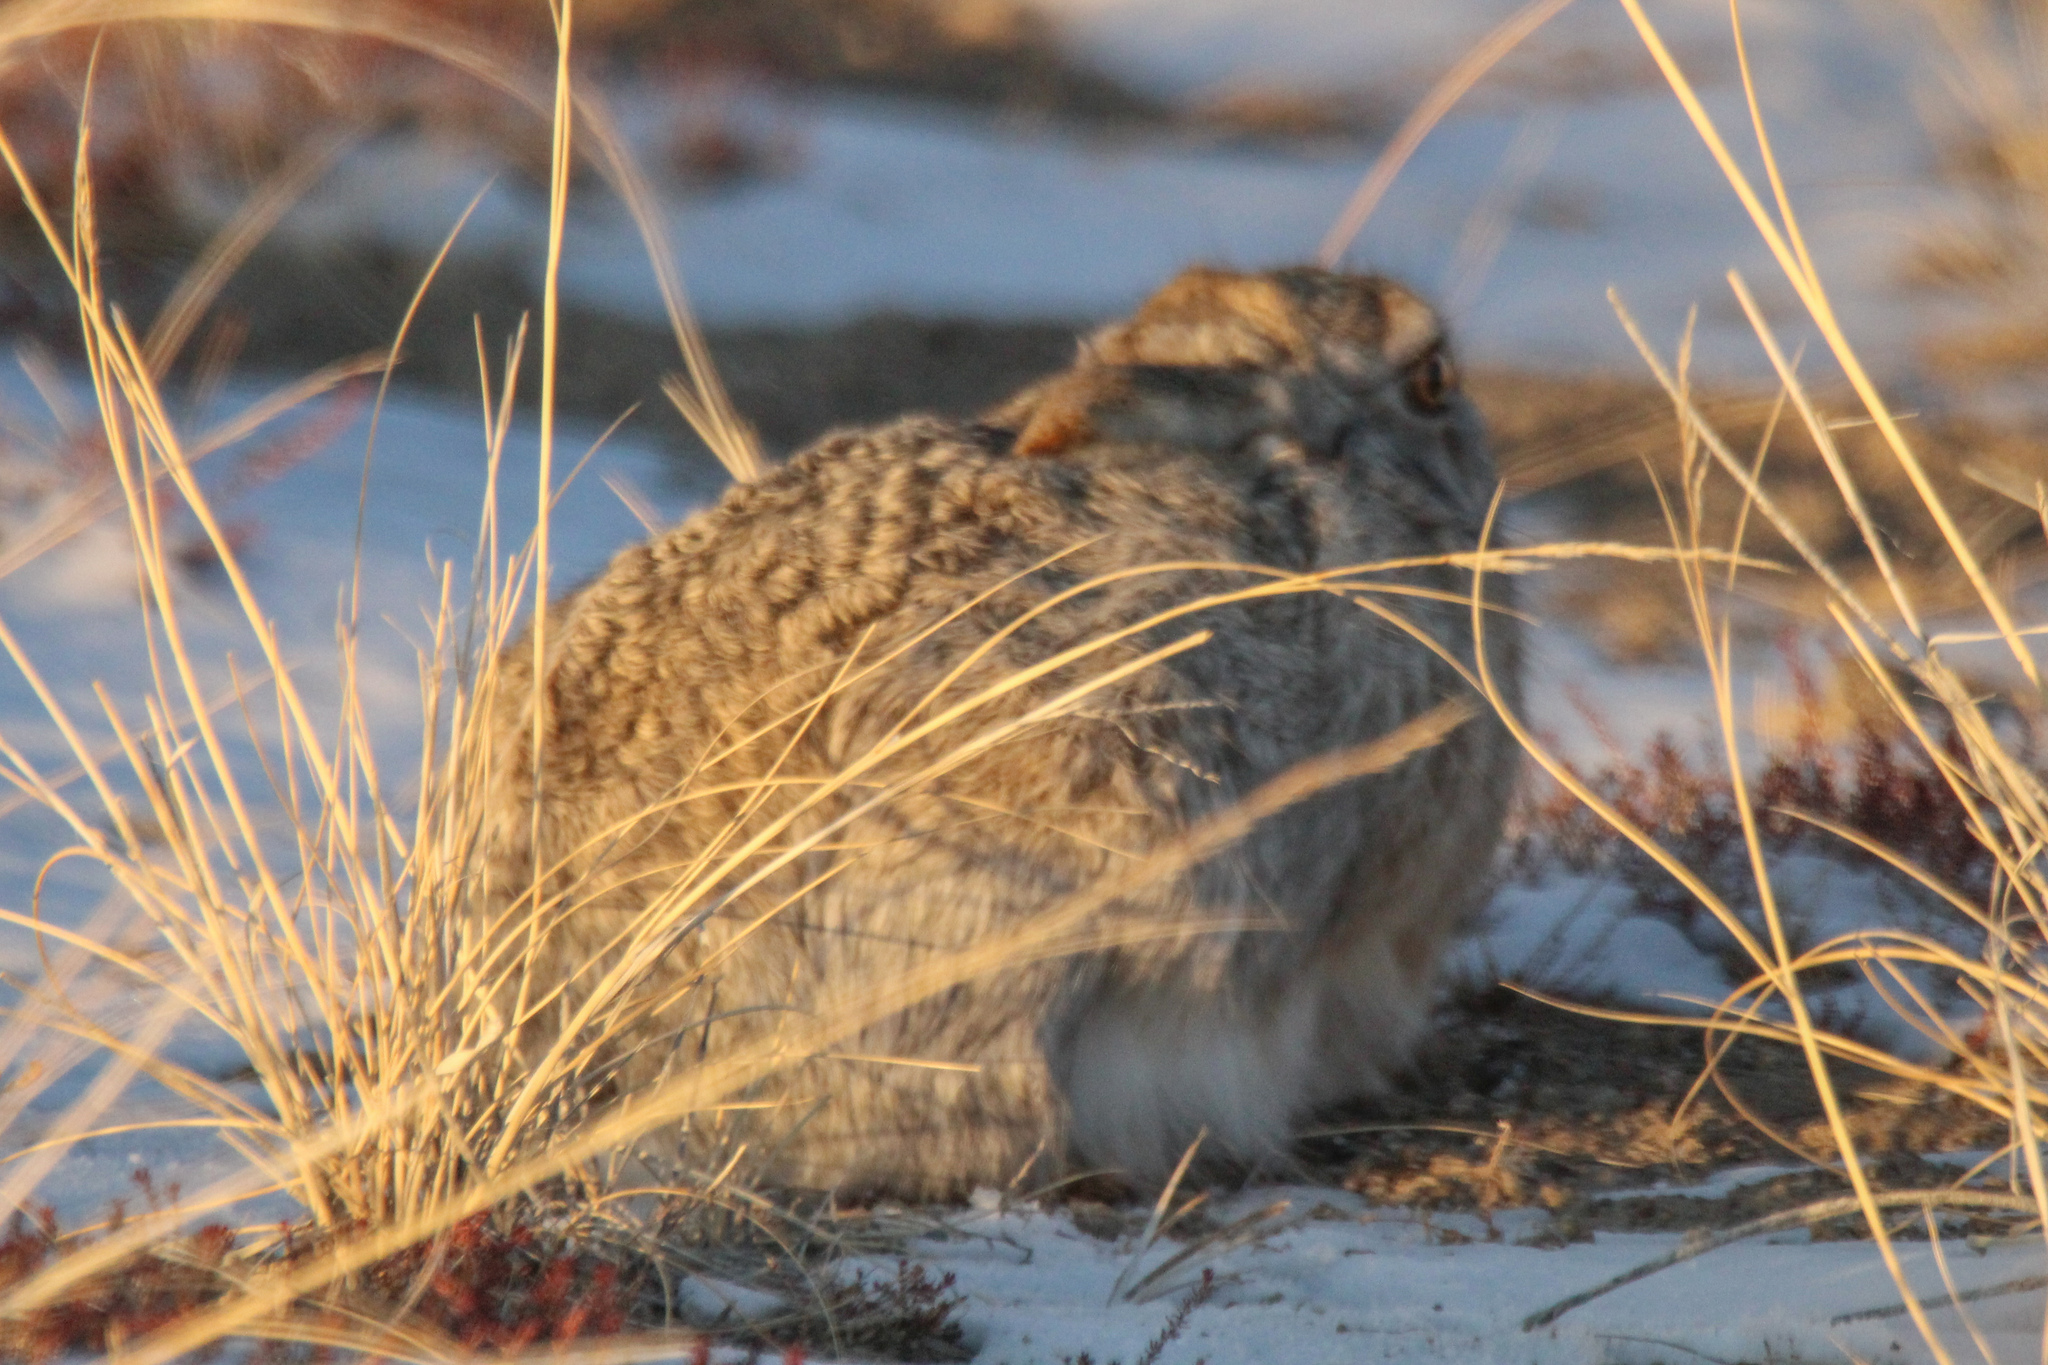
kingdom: Animalia
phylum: Chordata
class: Mammalia
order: Lagomorpha
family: Leporidae
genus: Lepus
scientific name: Lepus tolai
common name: Tolai hare
